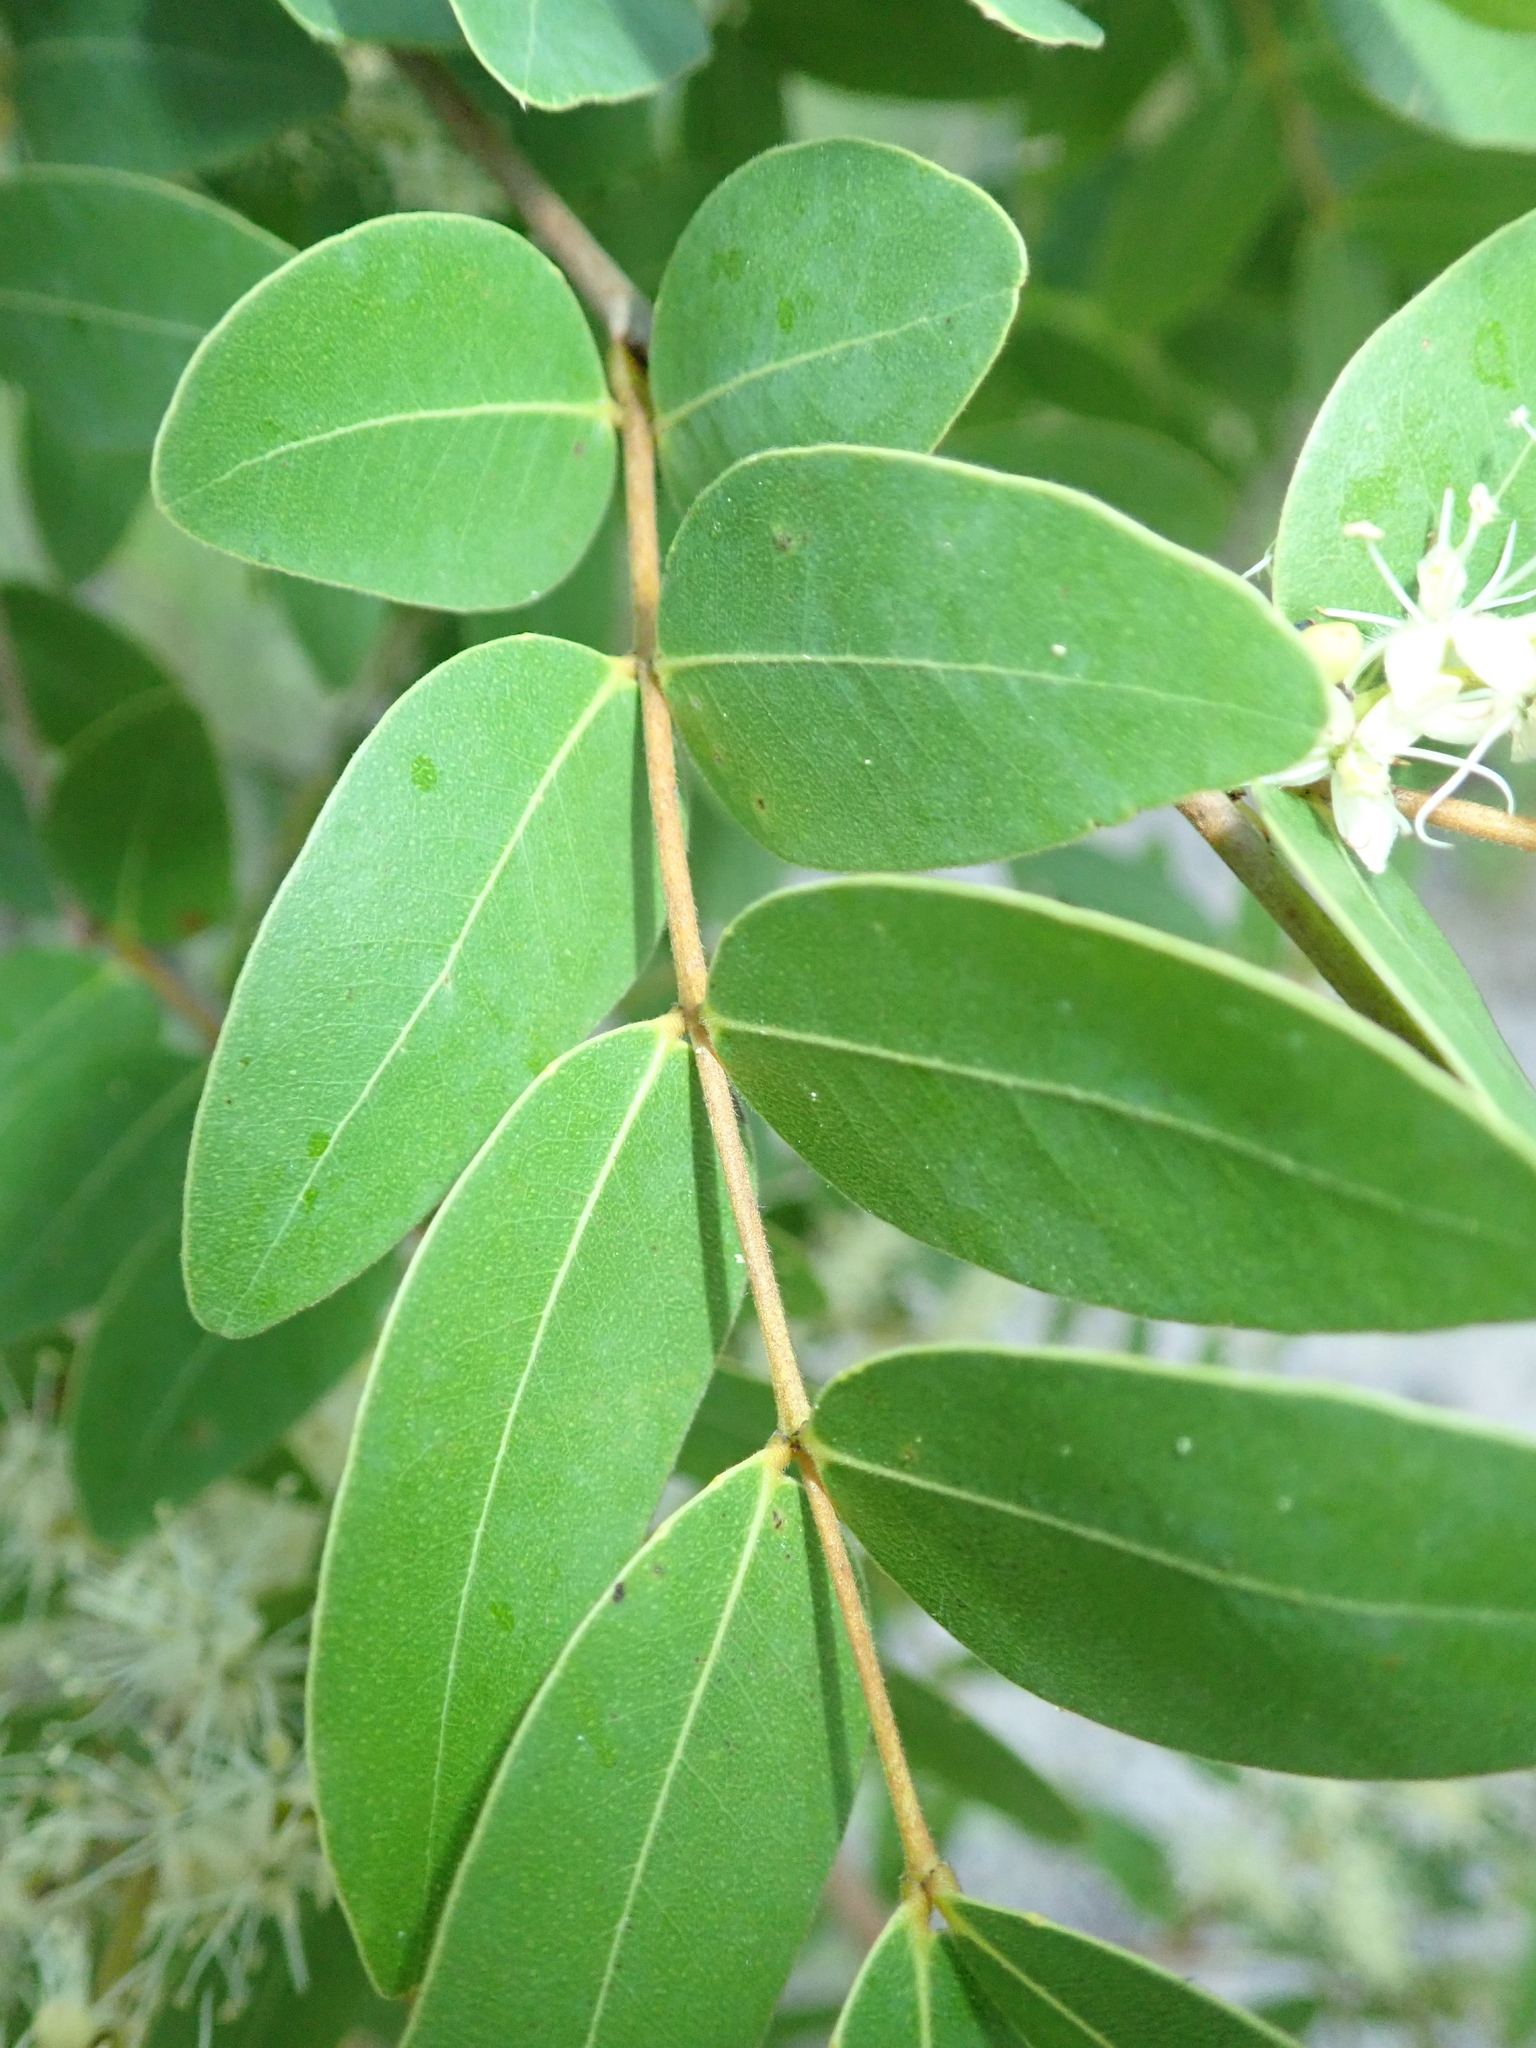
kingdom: Plantae
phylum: Tracheophyta
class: Magnoliopsida
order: Fabales
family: Fabaceae
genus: Copaifera
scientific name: Copaifera oblongifolia
